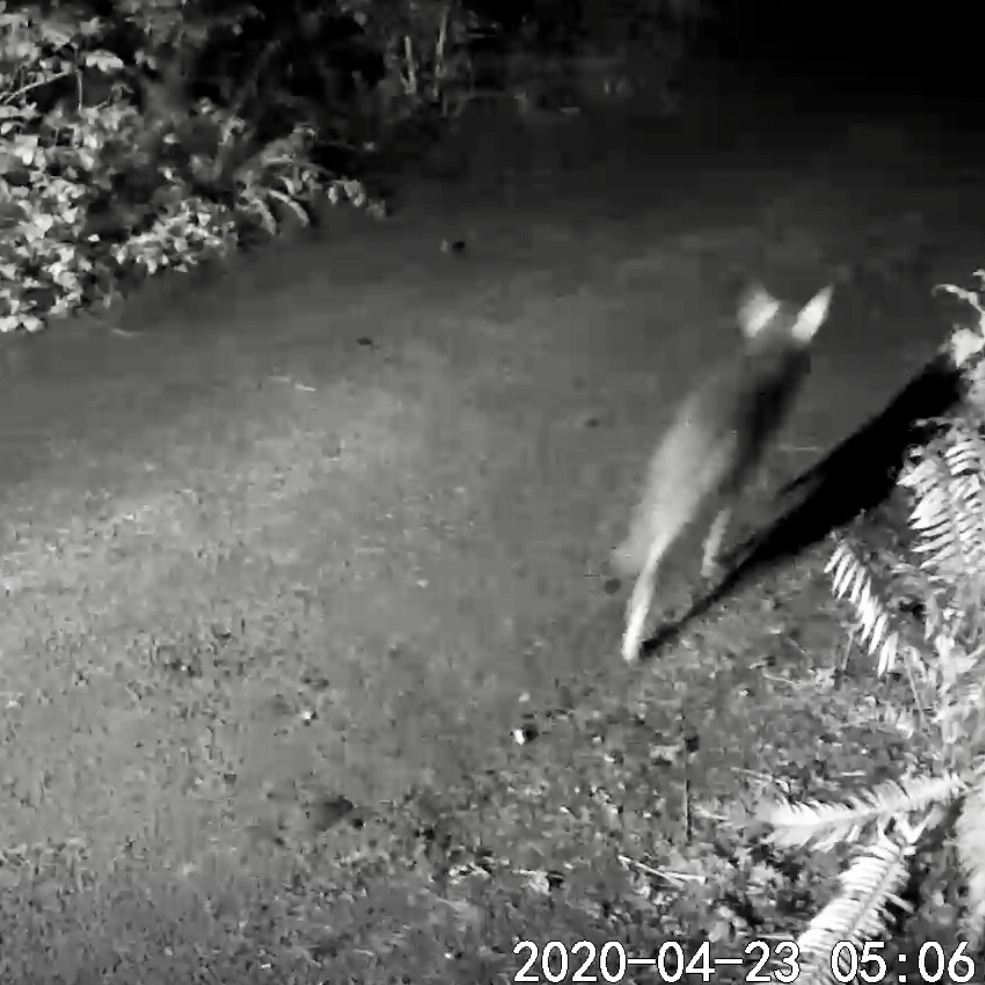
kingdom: Animalia
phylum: Chordata
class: Mammalia
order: Carnivora
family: Canidae
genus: Canis
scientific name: Canis latrans
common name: Coyote
